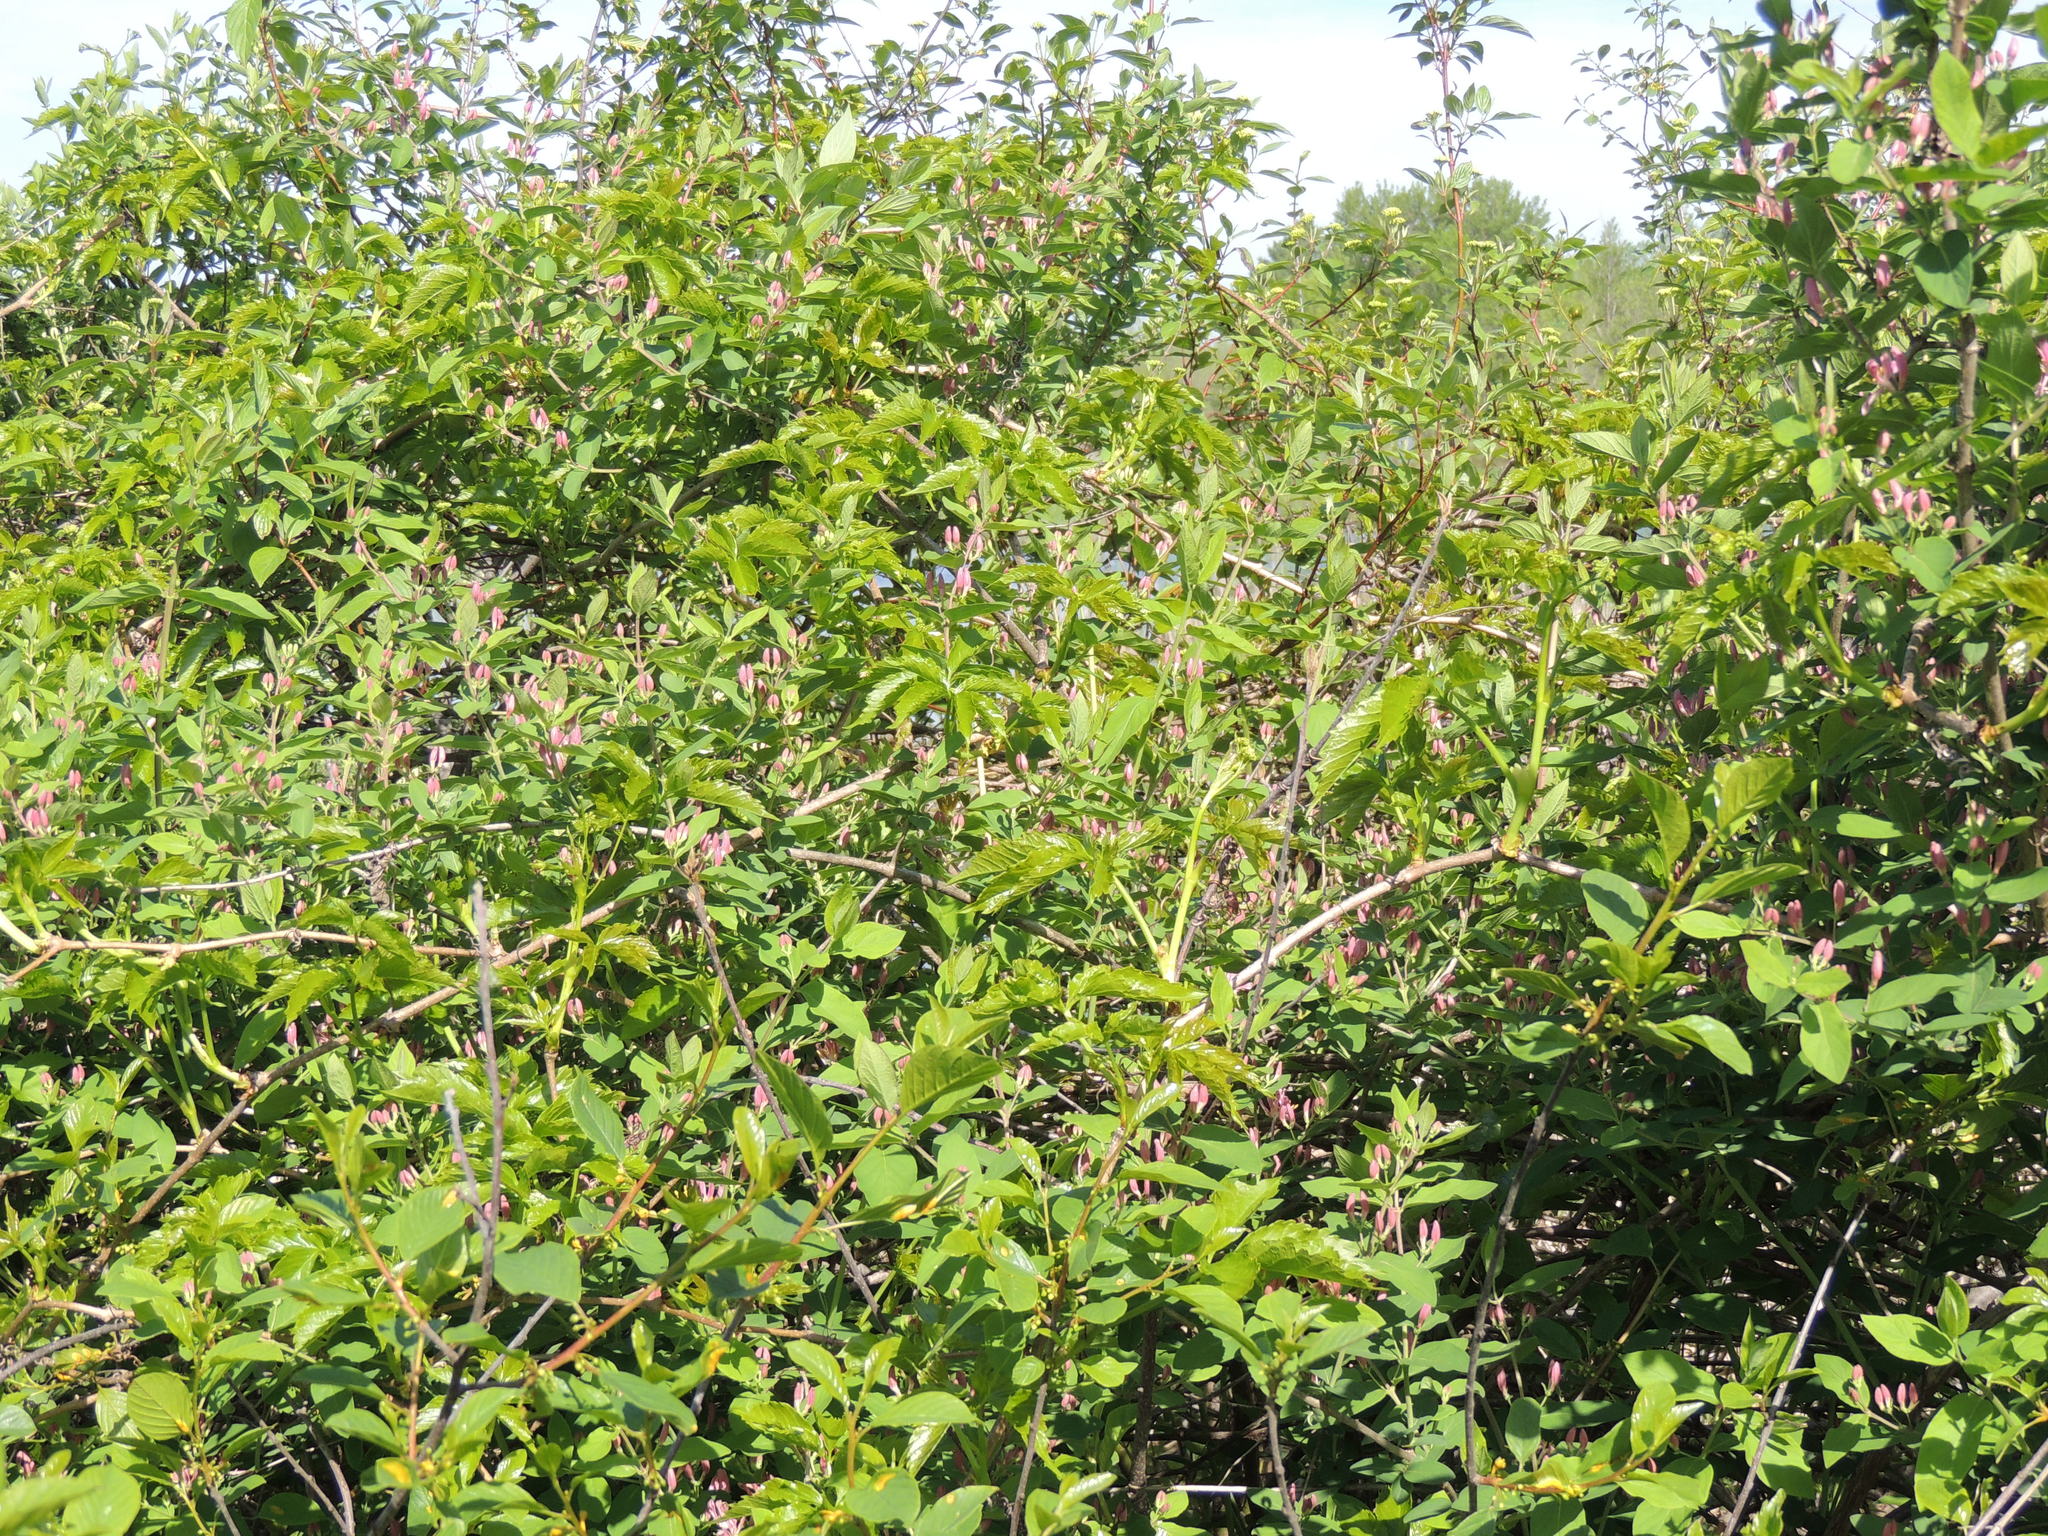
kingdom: Plantae
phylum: Tracheophyta
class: Magnoliopsida
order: Dipsacales
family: Caprifoliaceae
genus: Lonicera
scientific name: Lonicera
